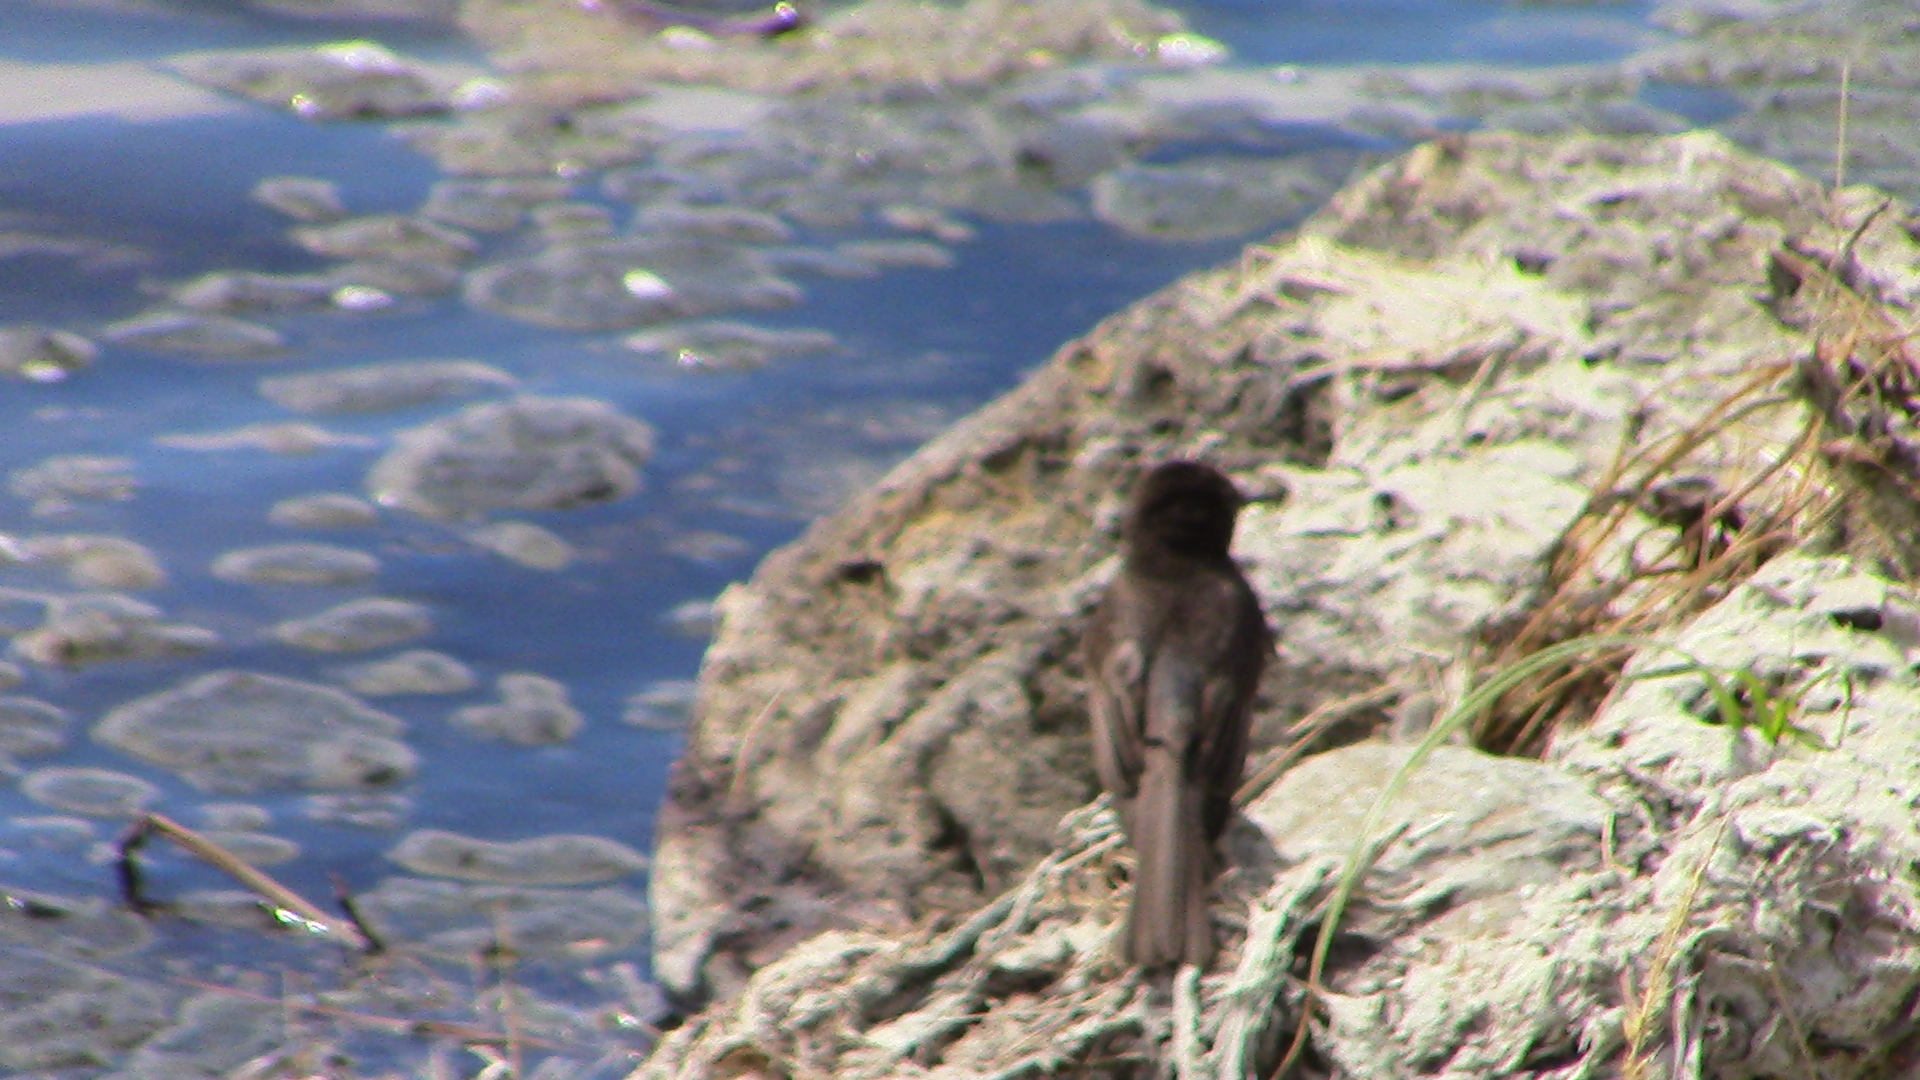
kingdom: Animalia
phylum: Chordata
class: Aves
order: Passeriformes
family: Tyrannidae
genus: Sayornis
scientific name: Sayornis nigricans
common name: Black phoebe
